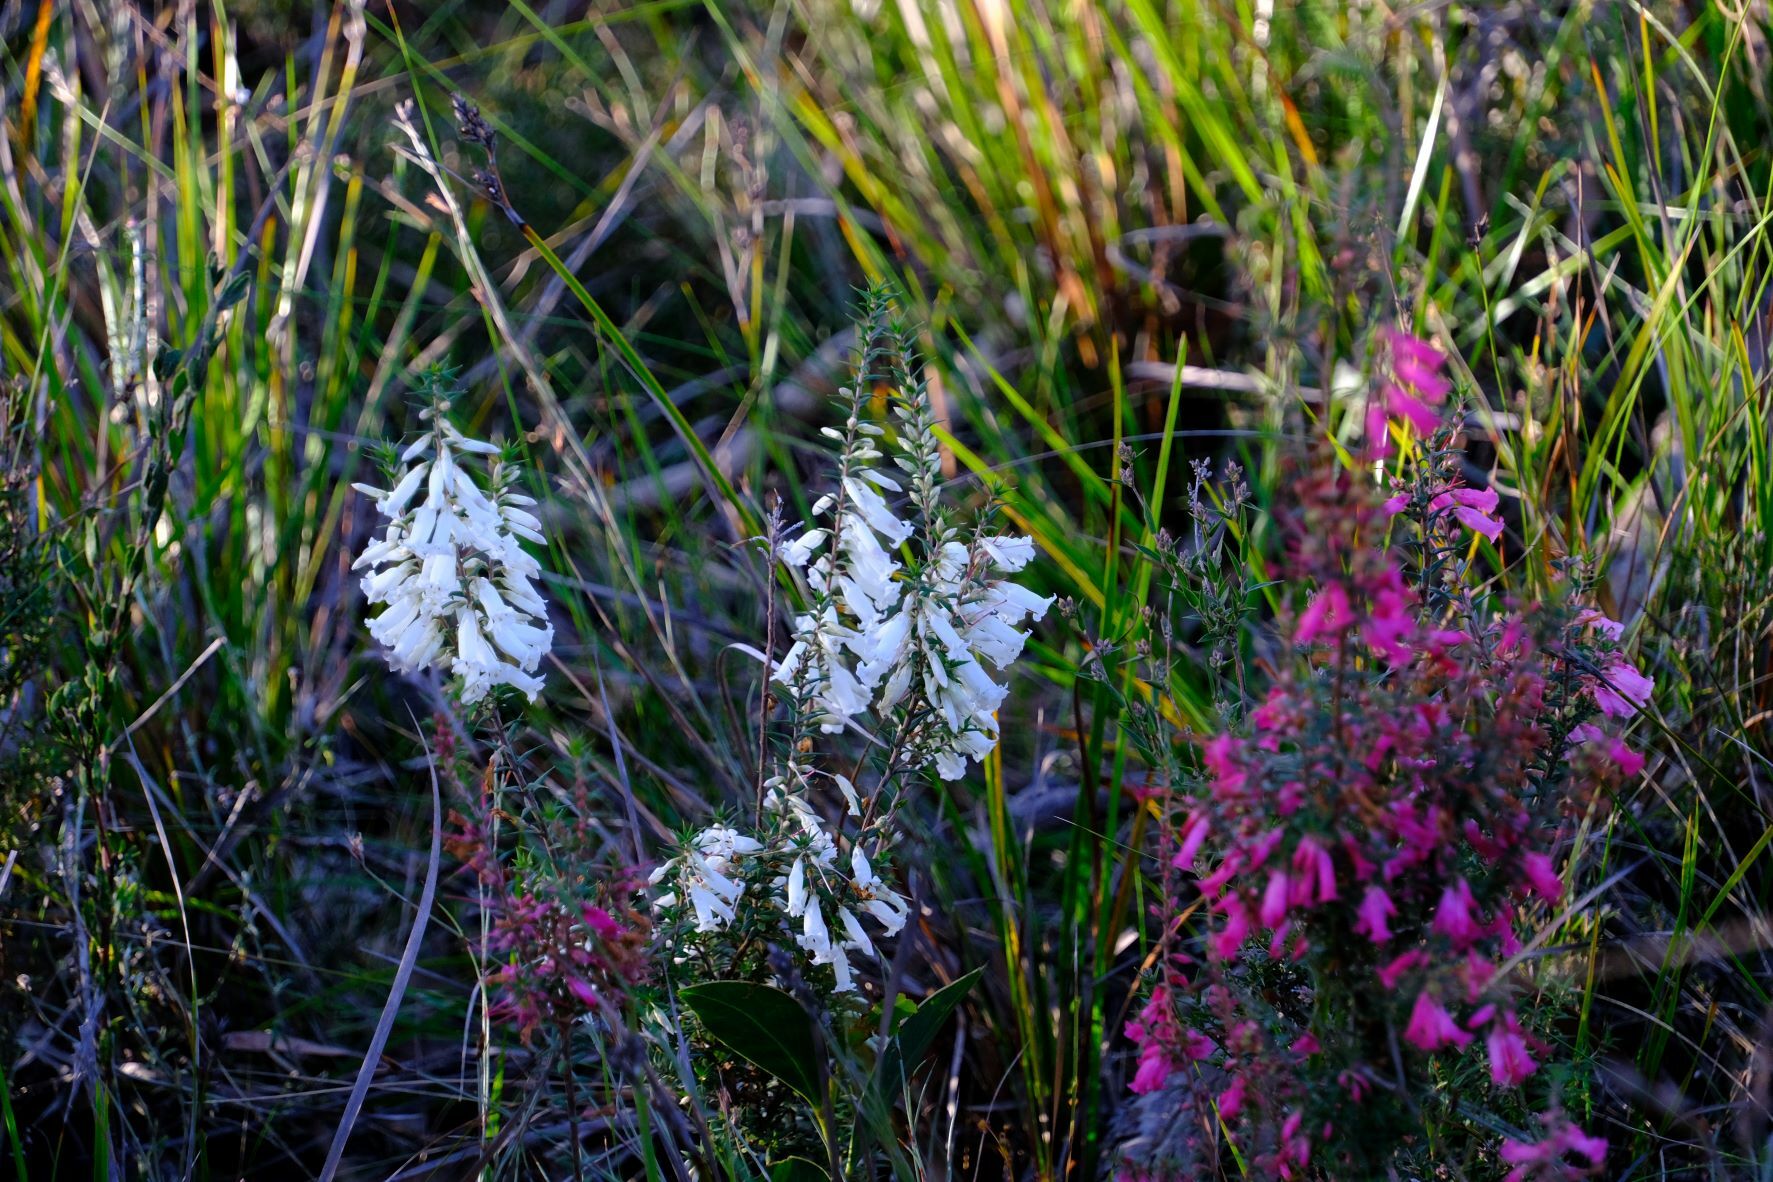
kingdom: Plantae
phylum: Tracheophyta
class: Magnoliopsida
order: Ericales
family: Ericaceae
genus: Epacris
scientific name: Epacris impressa
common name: Common-heath
